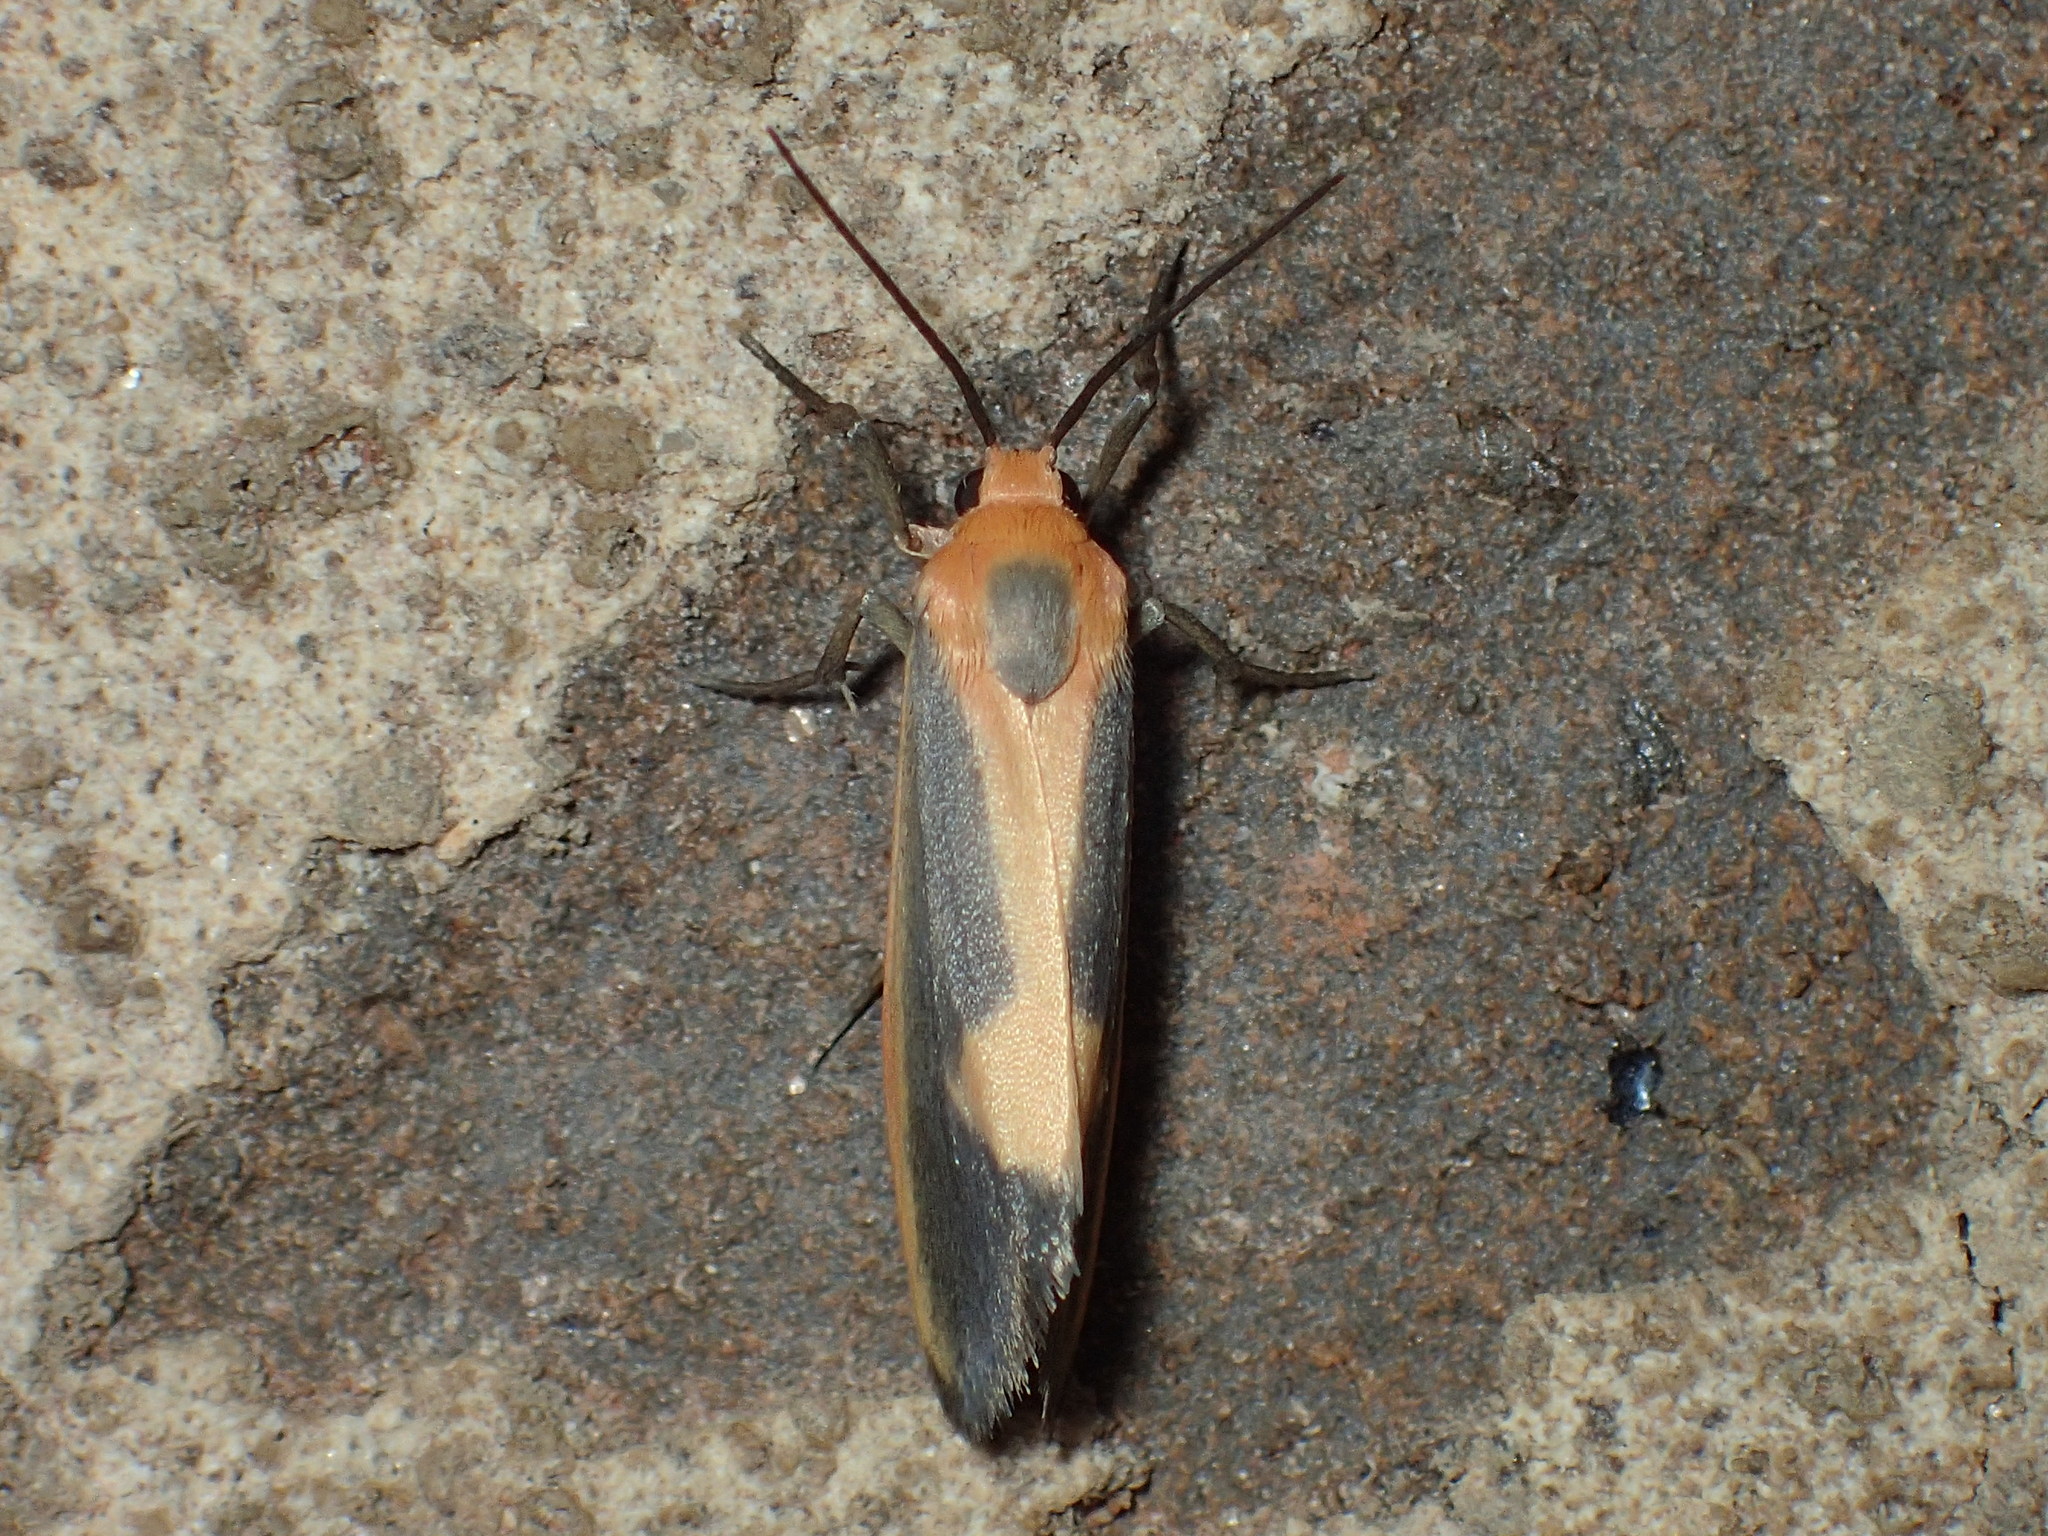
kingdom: Animalia
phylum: Arthropoda
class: Insecta
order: Lepidoptera
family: Erebidae
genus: Cisthene
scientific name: Cisthene plumbea
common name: Lead colored lichen moth
